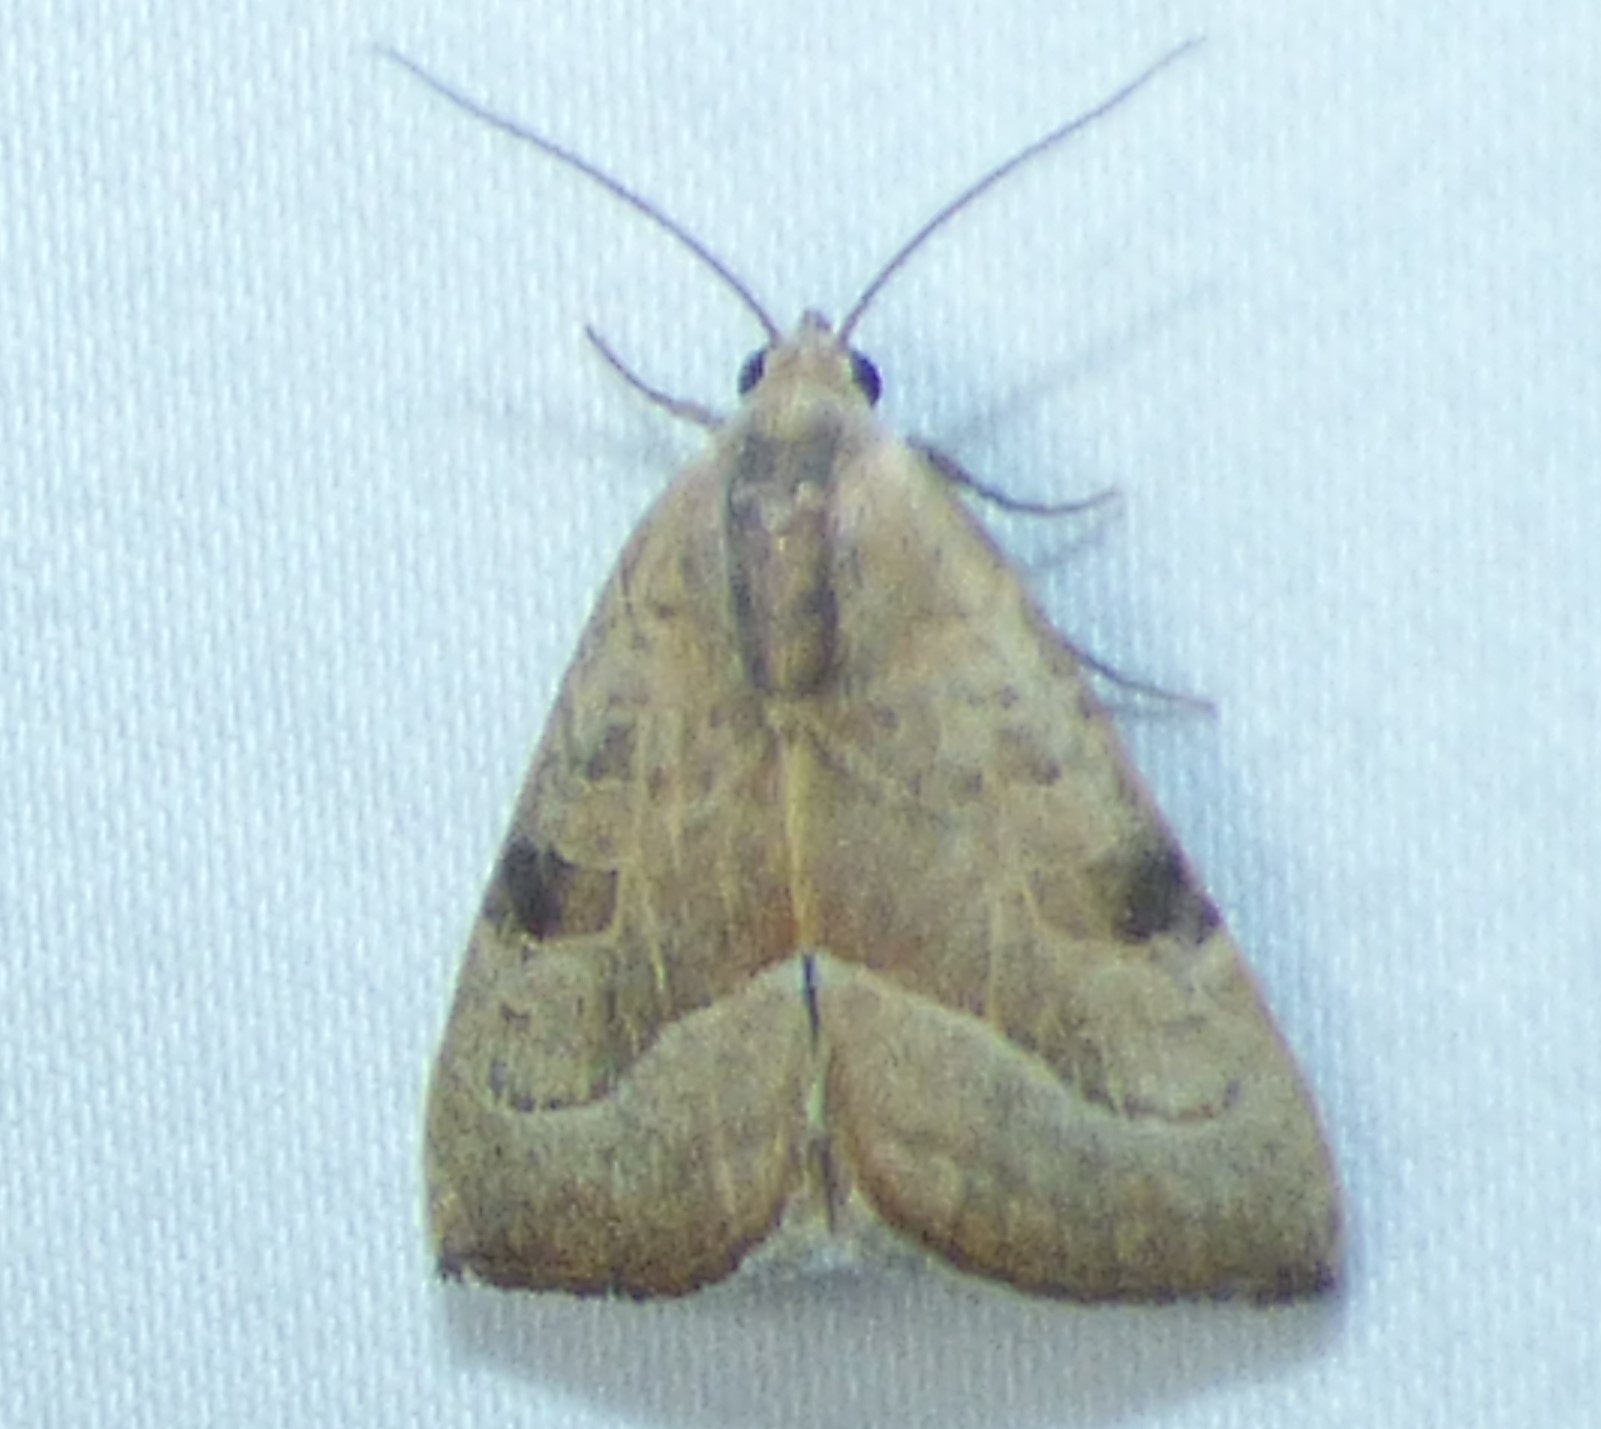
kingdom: Animalia
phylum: Arthropoda
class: Insecta
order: Lepidoptera
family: Noctuidae
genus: Galgula
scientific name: Galgula partita
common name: Wedgeling
